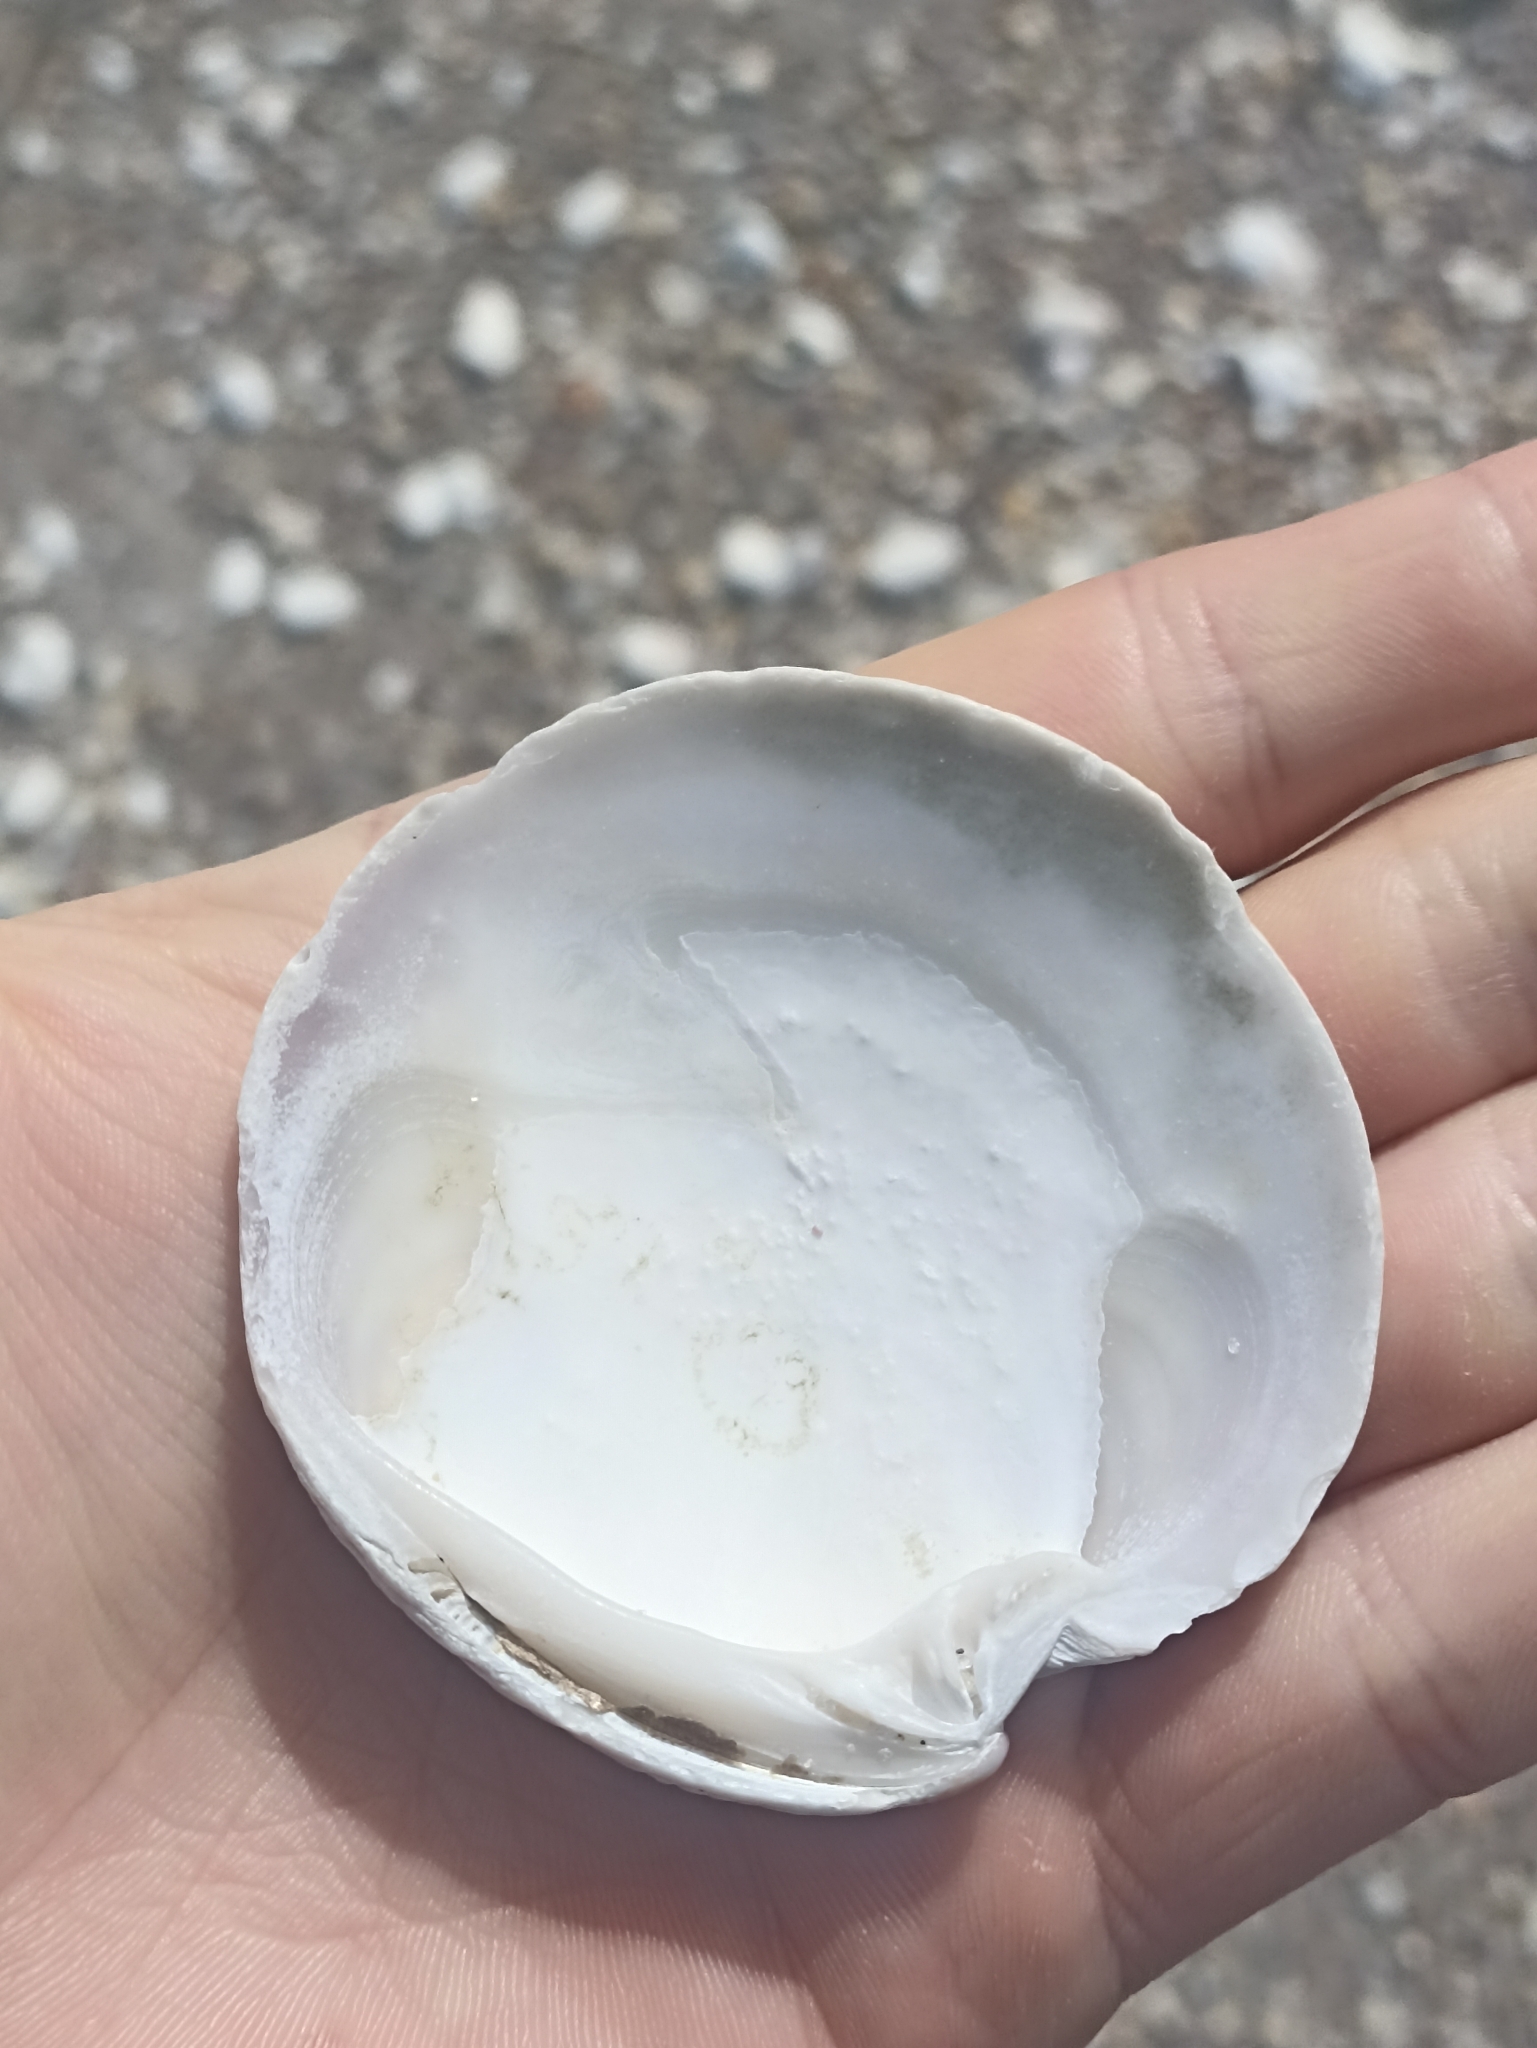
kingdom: Animalia
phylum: Mollusca
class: Bivalvia
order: Venerida
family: Veneridae
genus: Dosinia
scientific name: Dosinia anus
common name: Old-woman dosinia
